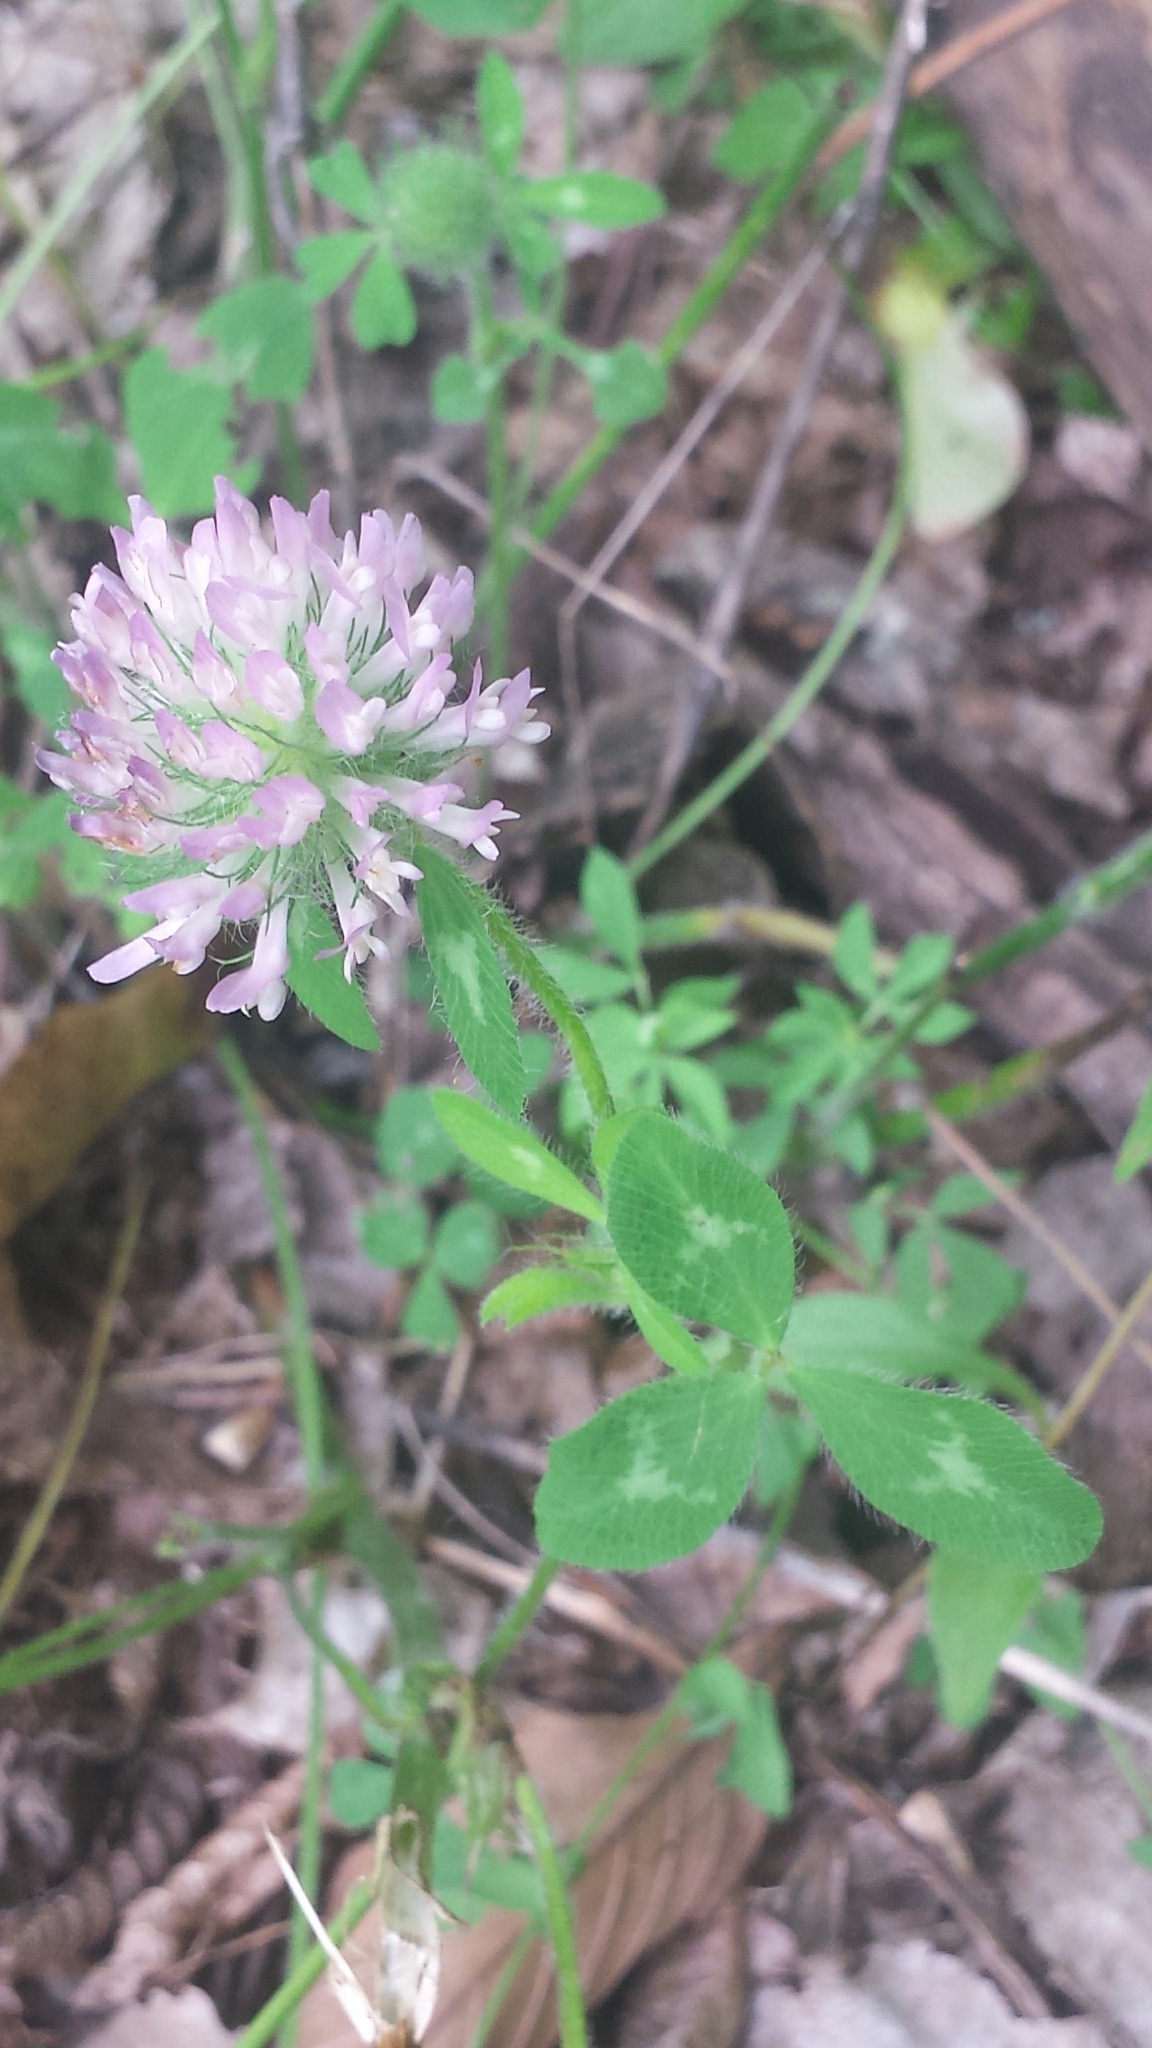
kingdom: Plantae
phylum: Tracheophyta
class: Magnoliopsida
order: Fabales
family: Fabaceae
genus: Trifolium
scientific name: Trifolium pratense
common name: Red clover
